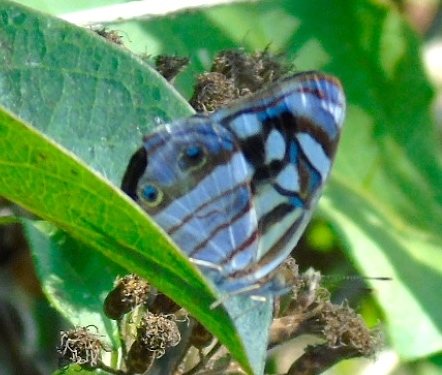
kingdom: Animalia
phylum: Arthropoda
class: Insecta
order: Lepidoptera
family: Nymphalidae
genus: Dynamine
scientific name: Dynamine mylitta
